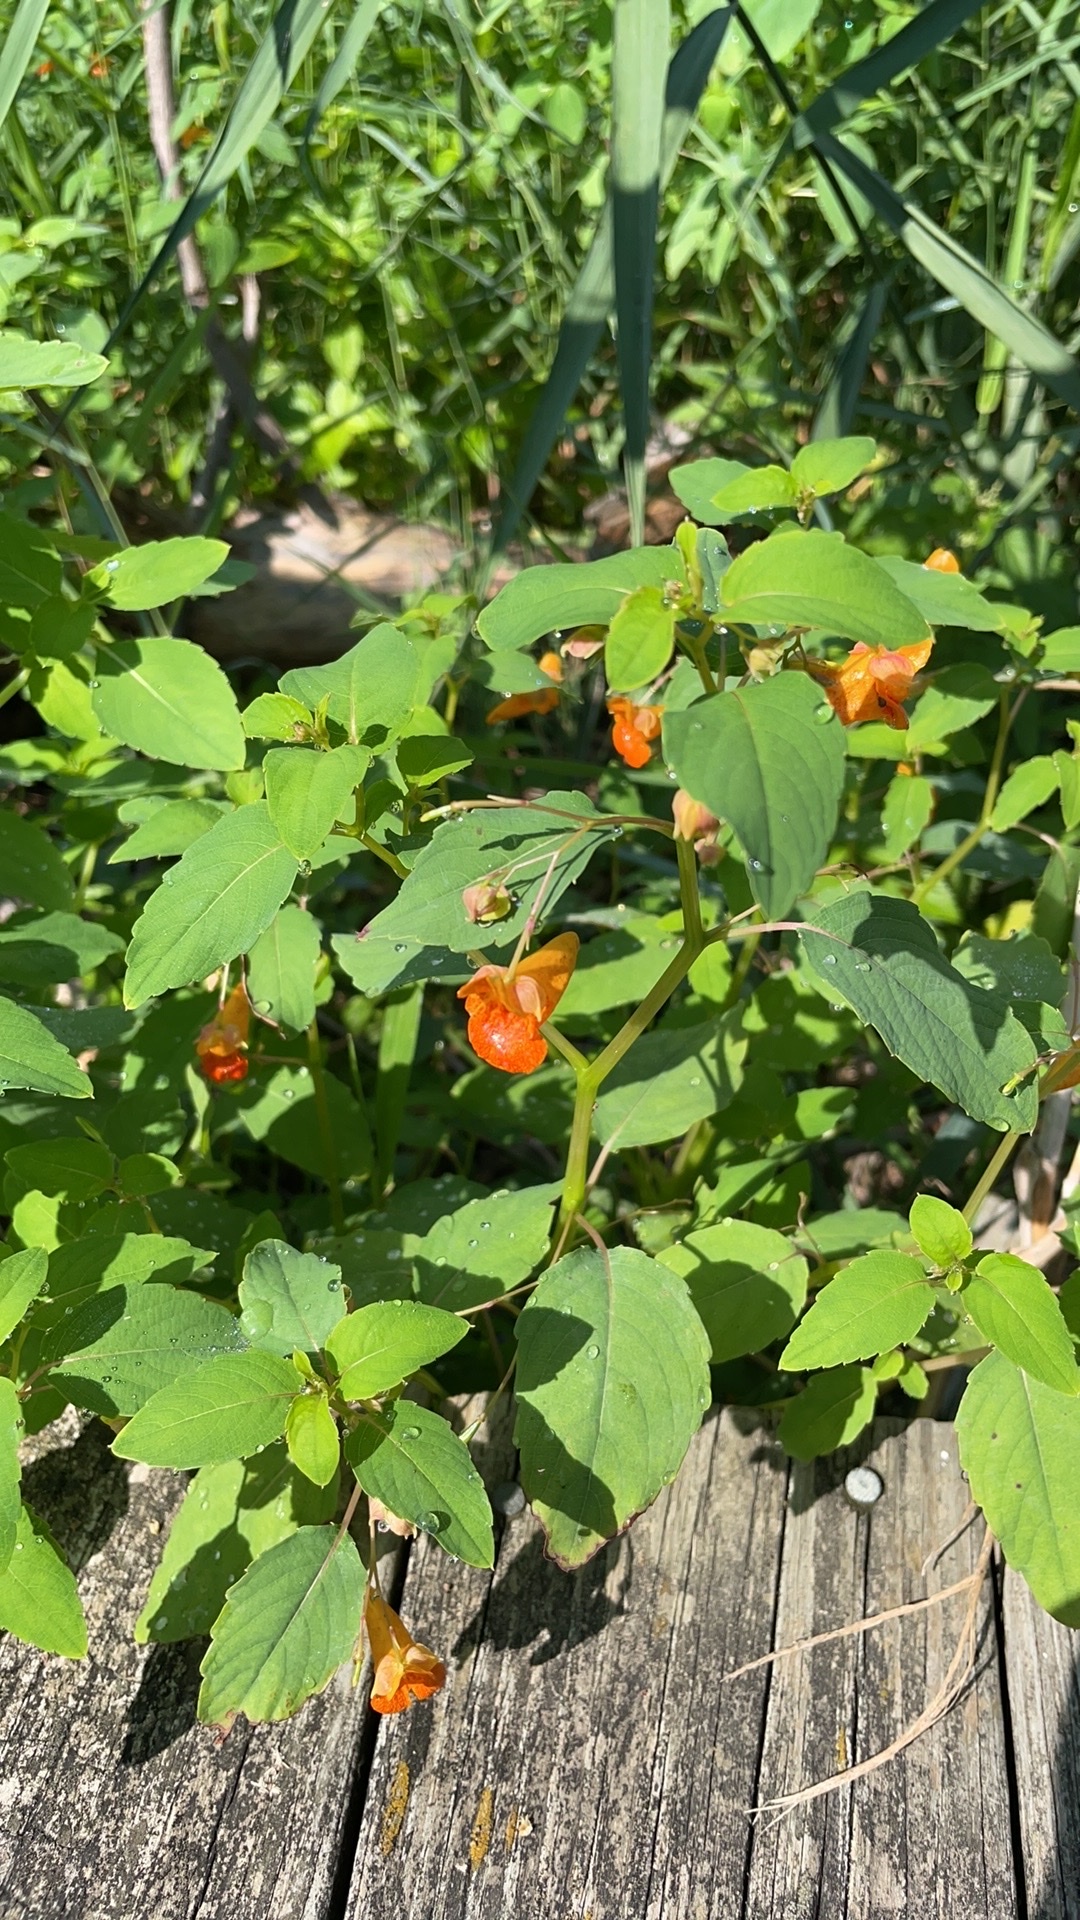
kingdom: Plantae
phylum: Tracheophyta
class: Magnoliopsida
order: Ericales
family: Balsaminaceae
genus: Impatiens
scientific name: Impatiens capensis
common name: Orange balsam
